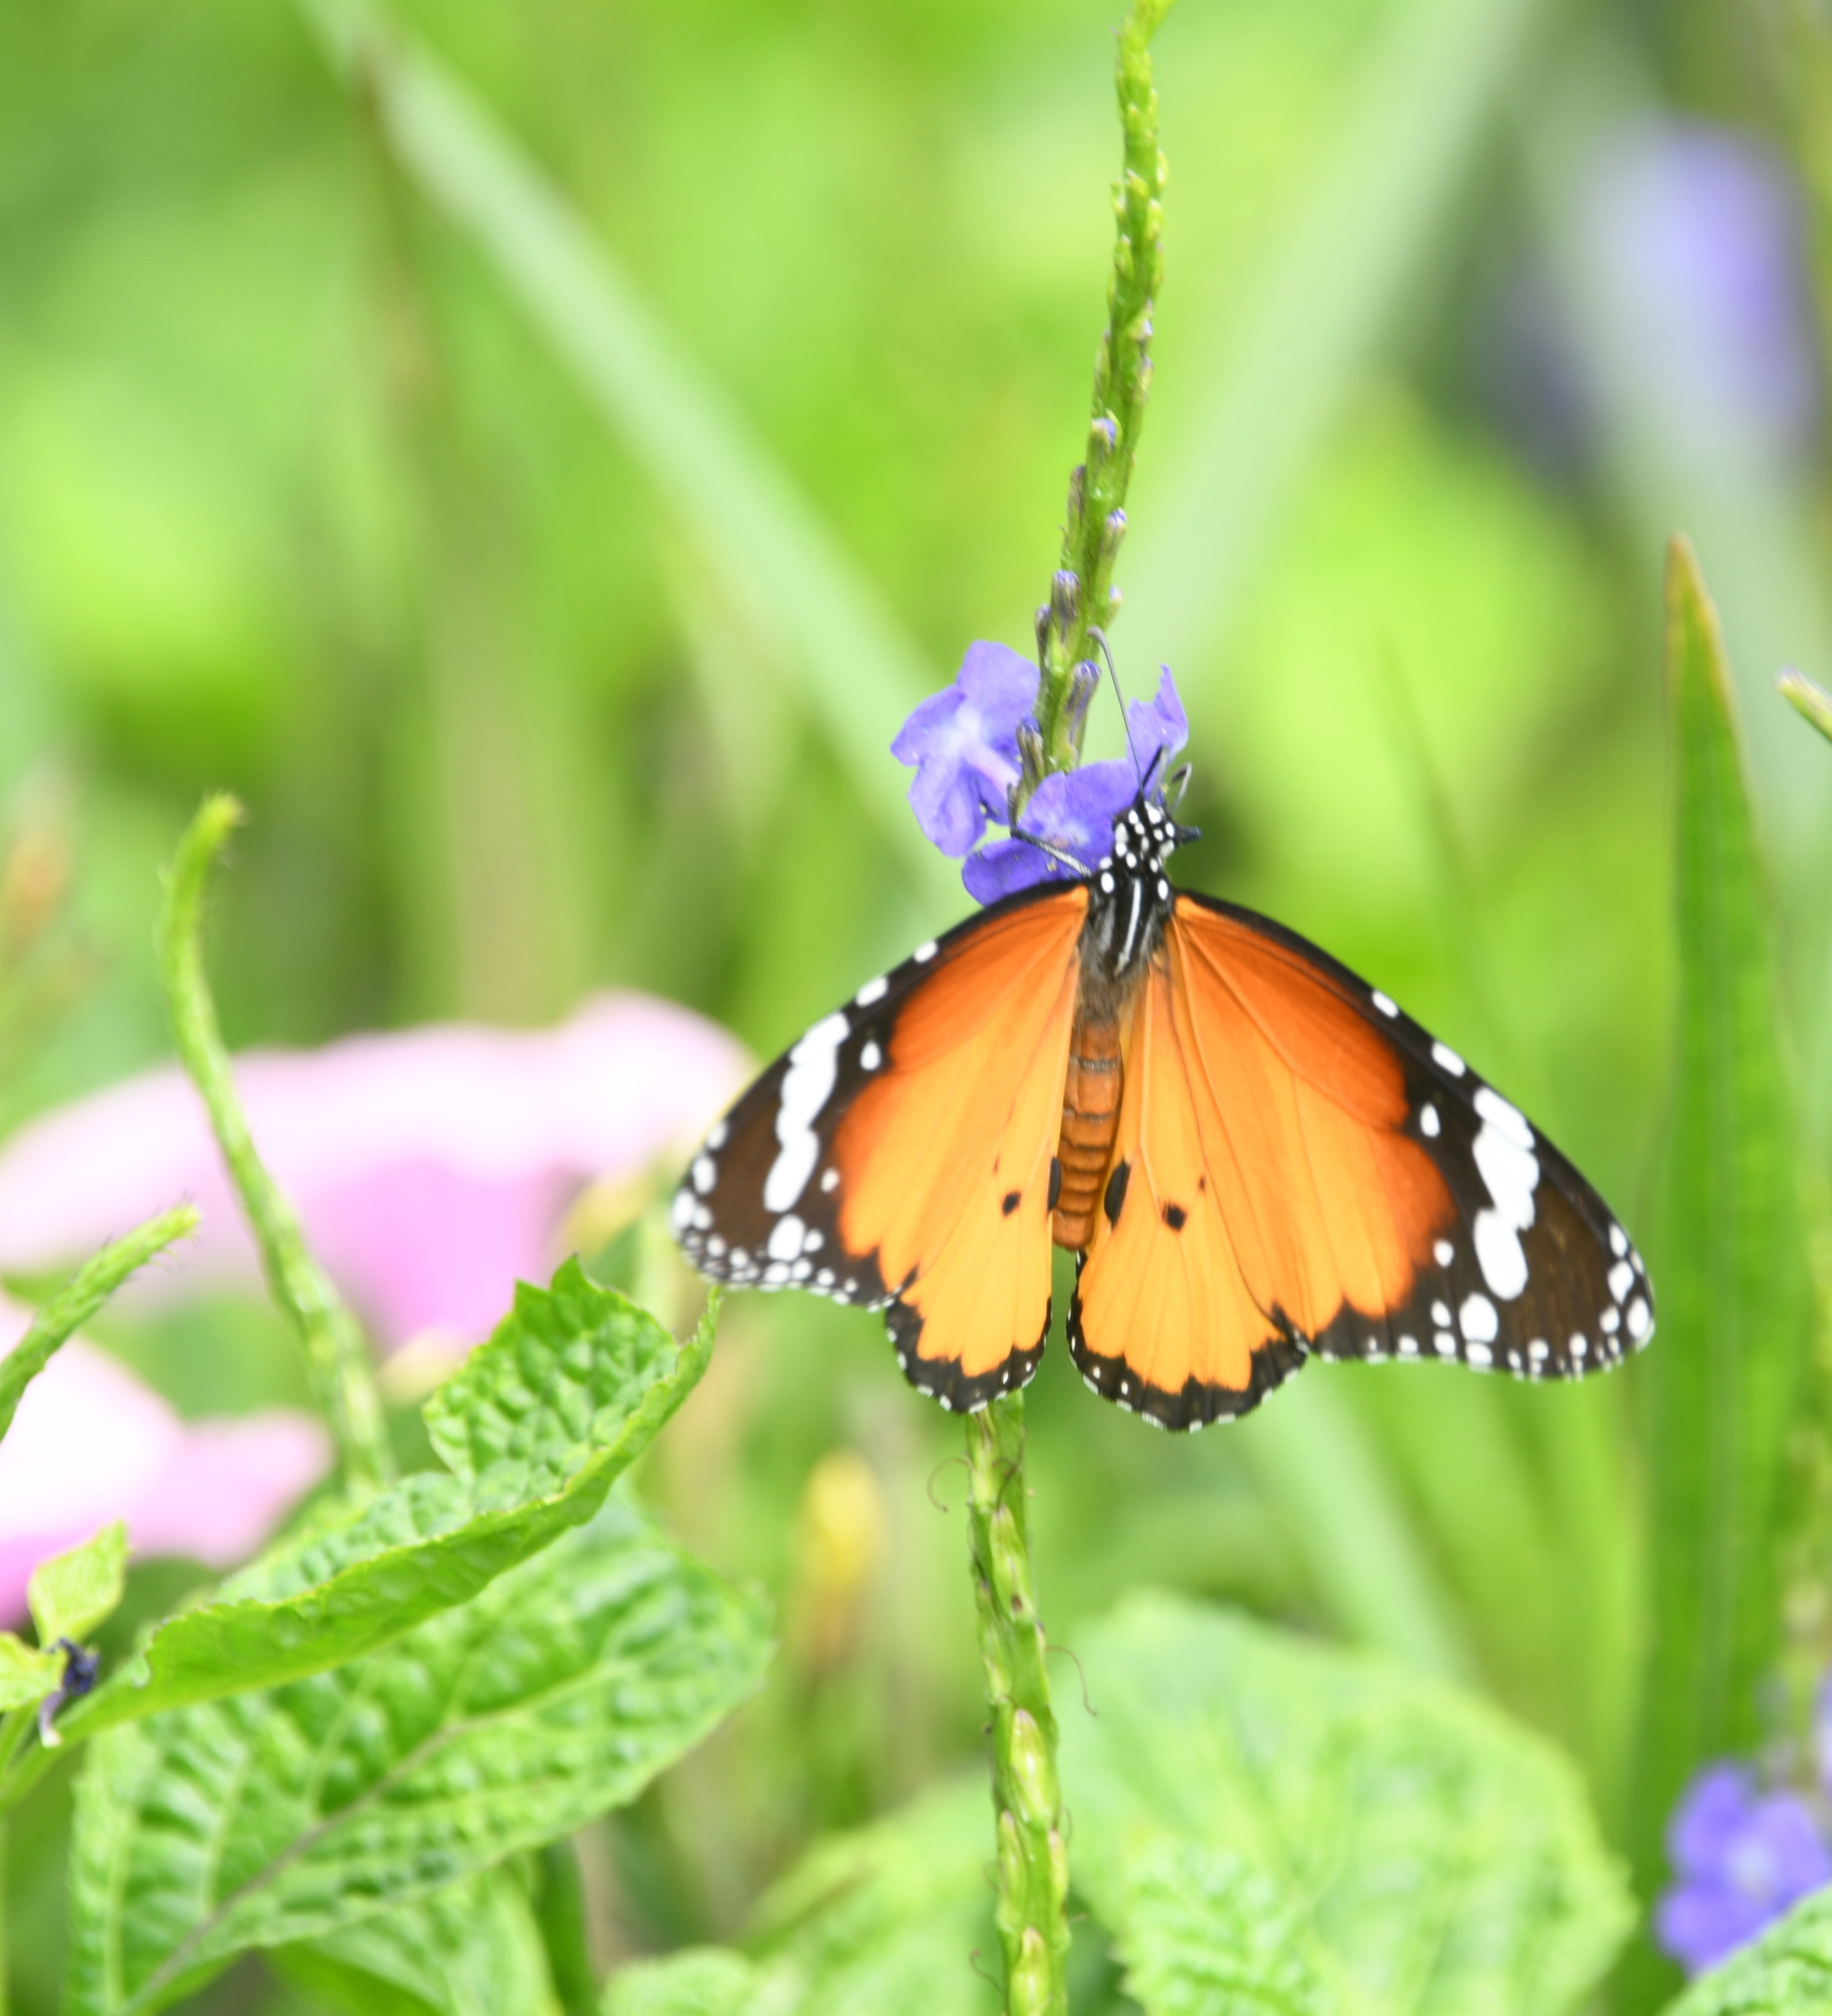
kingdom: Animalia
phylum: Arthropoda
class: Insecta
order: Lepidoptera
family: Nymphalidae
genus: Danaus
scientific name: Danaus chrysippus
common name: Plain tiger
